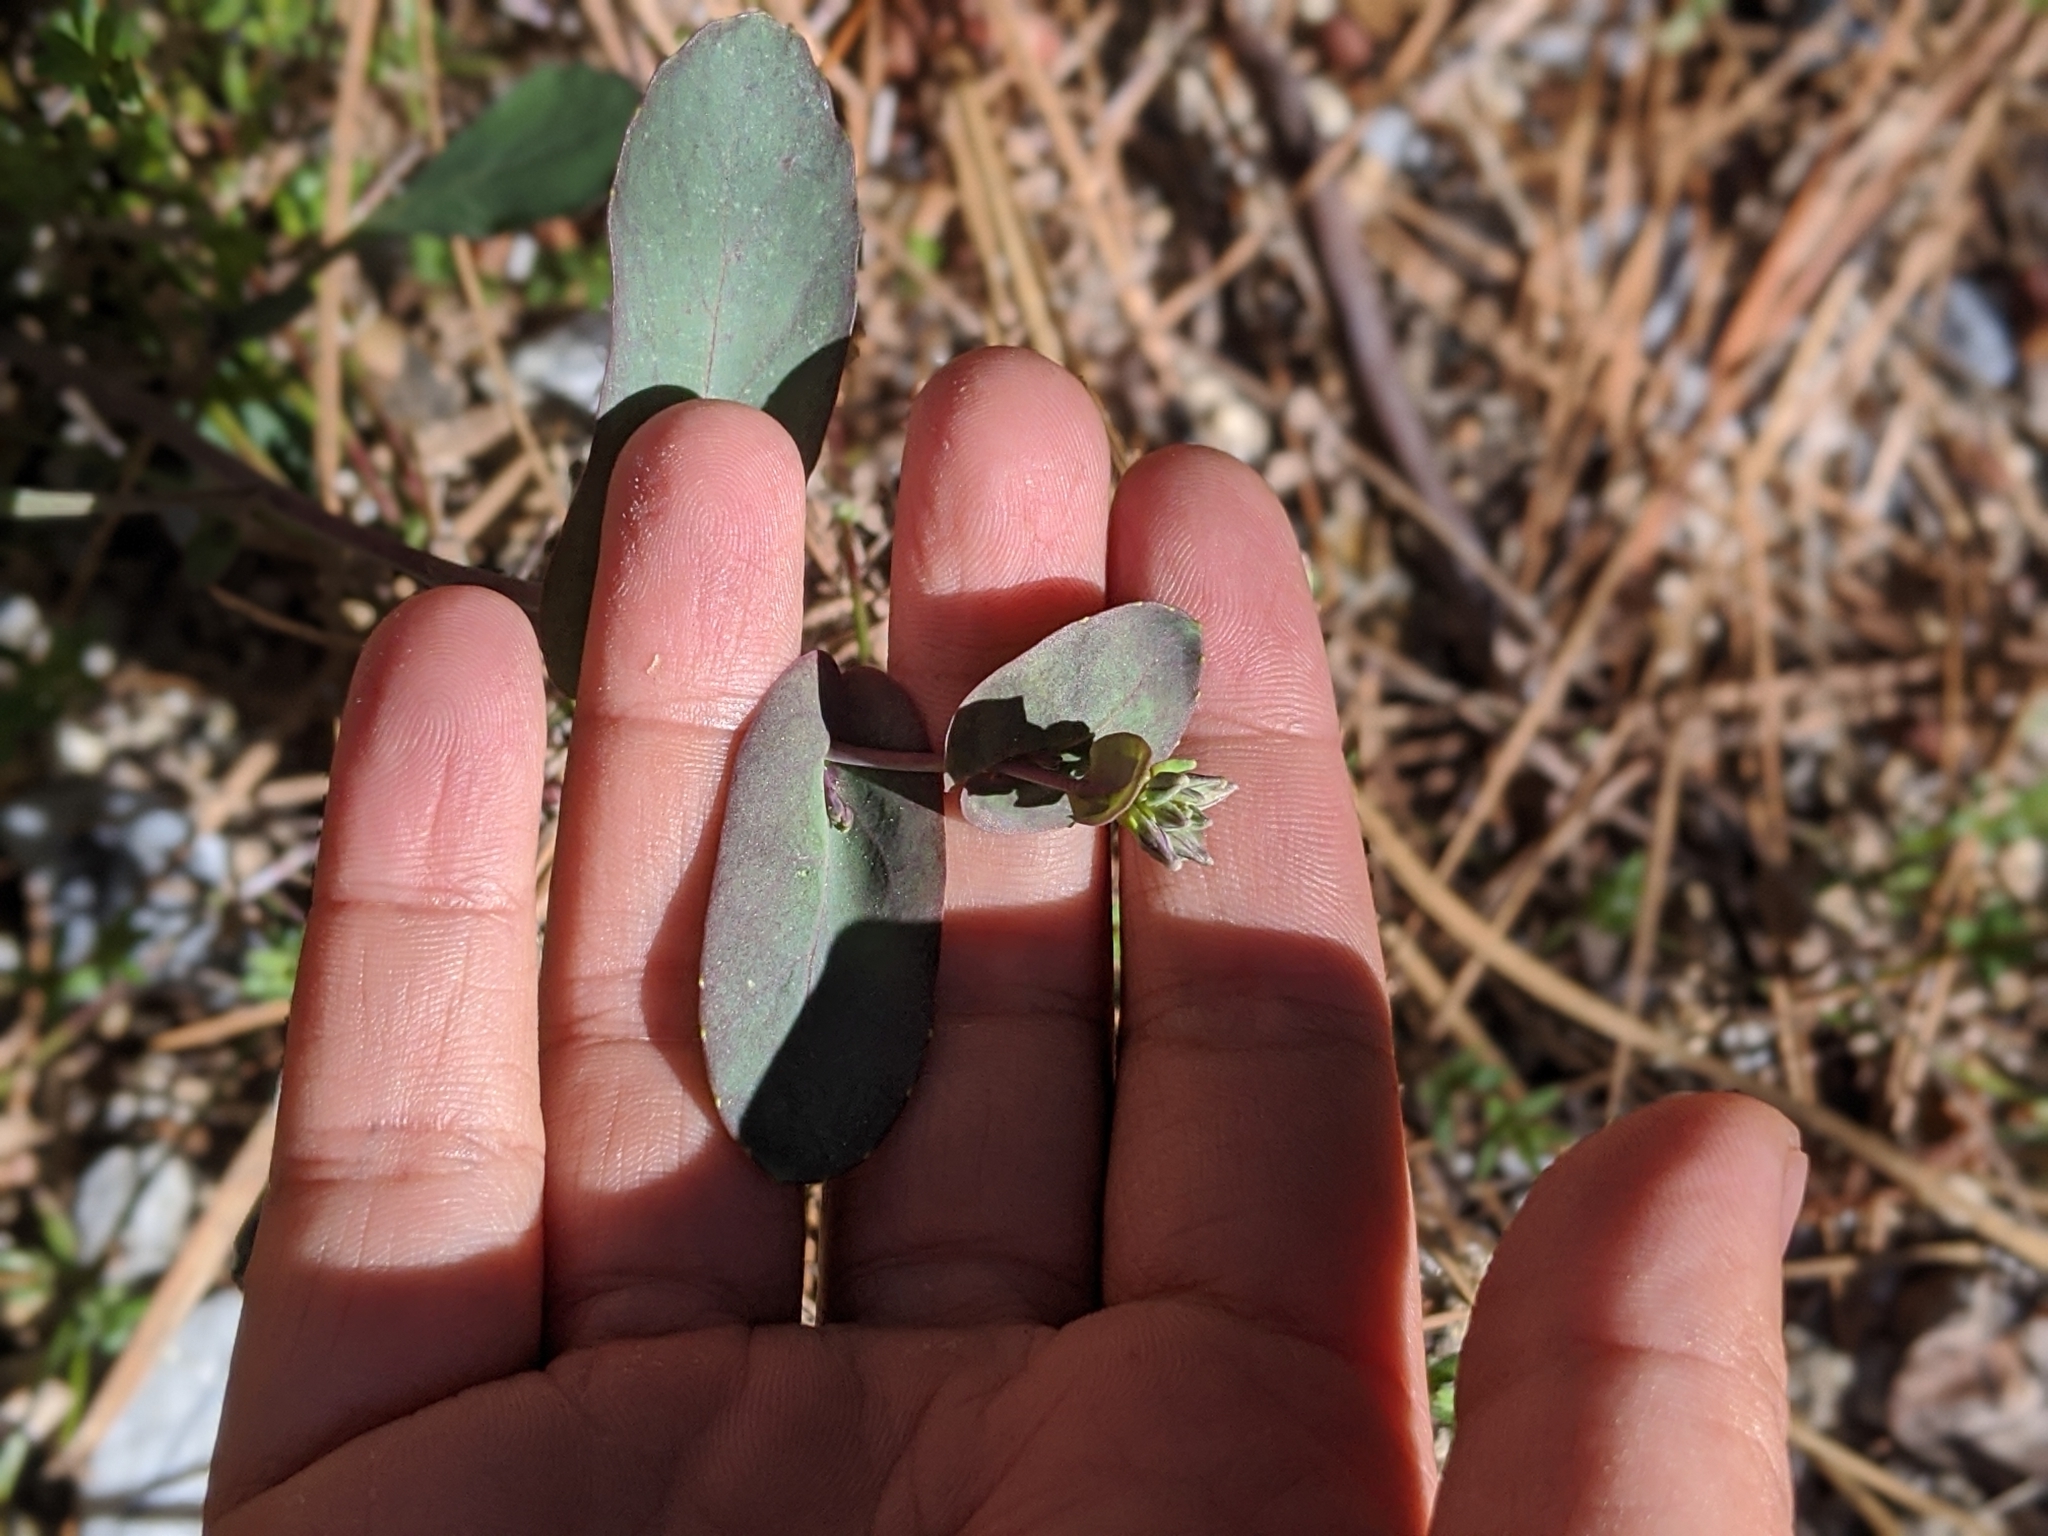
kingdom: Plantae
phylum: Tracheophyta
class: Magnoliopsida
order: Brassicales
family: Brassicaceae
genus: Streptanthus
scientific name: Streptanthus tortuosus
